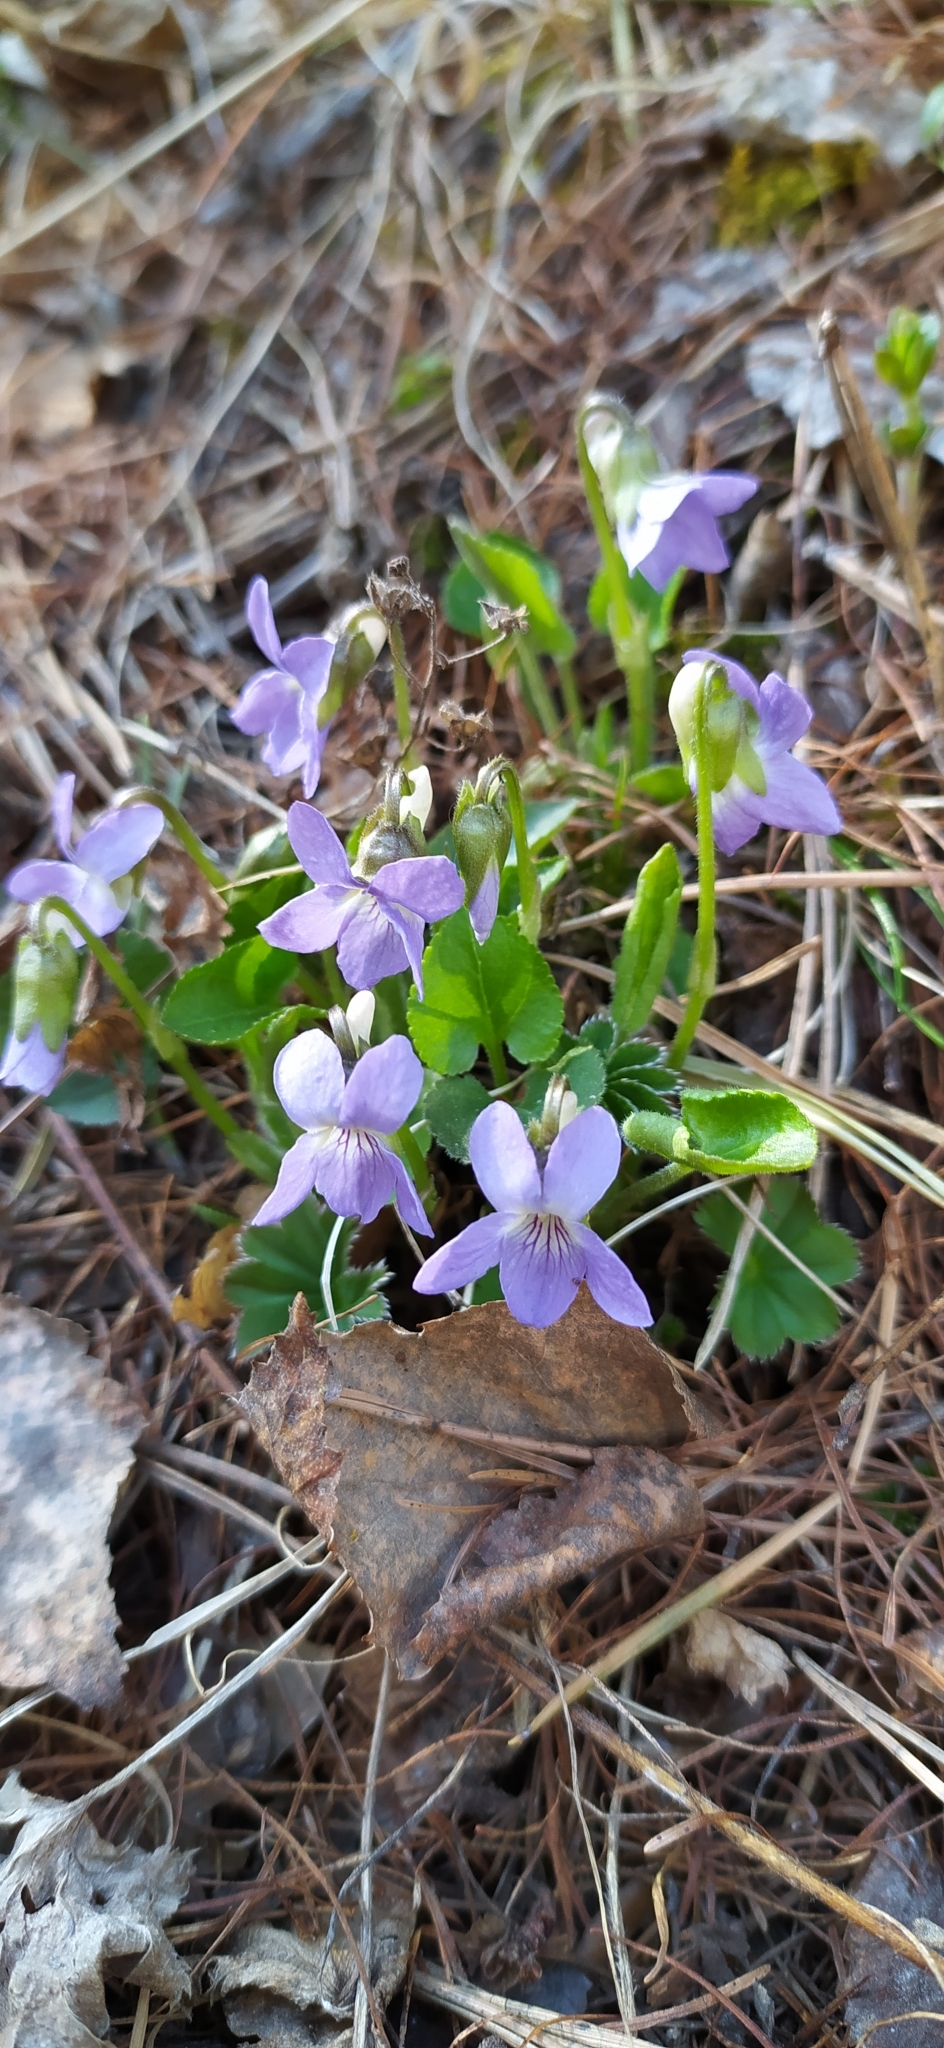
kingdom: Plantae
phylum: Tracheophyta
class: Magnoliopsida
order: Malpighiales
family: Violaceae
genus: Viola
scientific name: Viola collina
